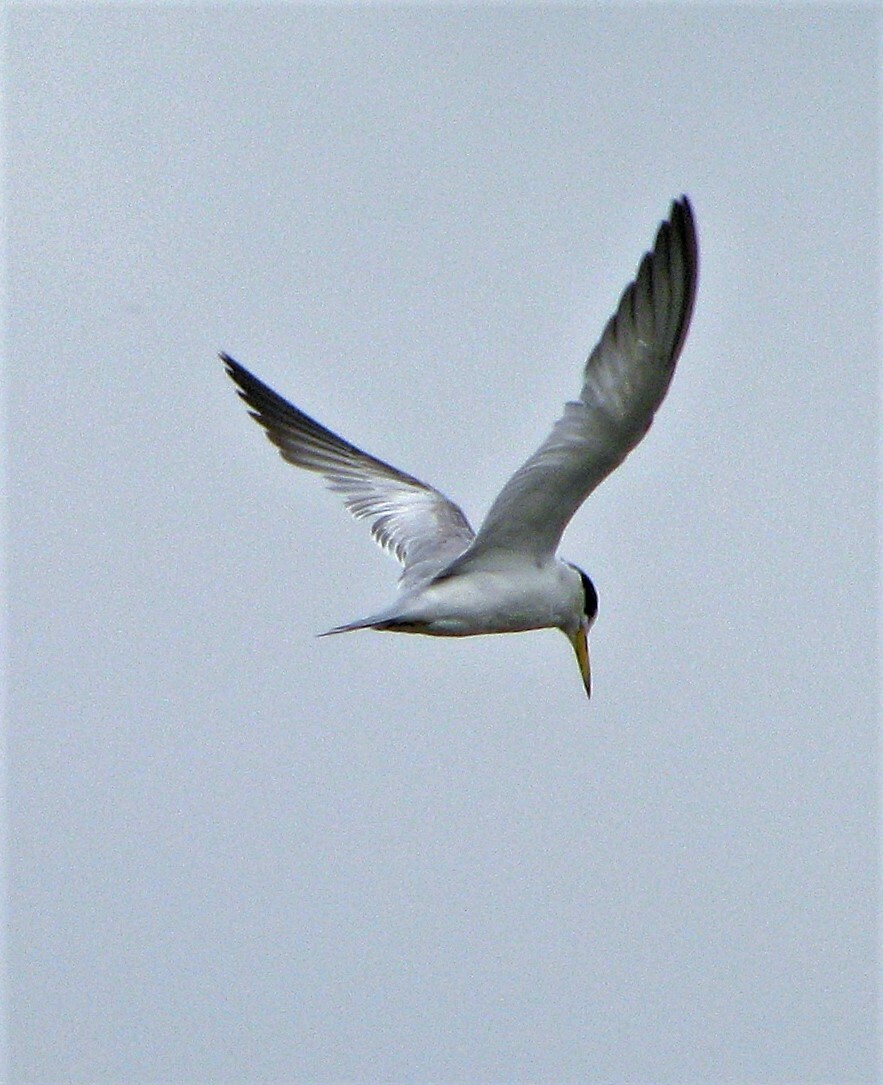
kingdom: Animalia
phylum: Chordata
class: Aves
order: Charadriiformes
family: Laridae
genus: Sternula
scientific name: Sternula superciliaris
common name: Yellow-billed tern
